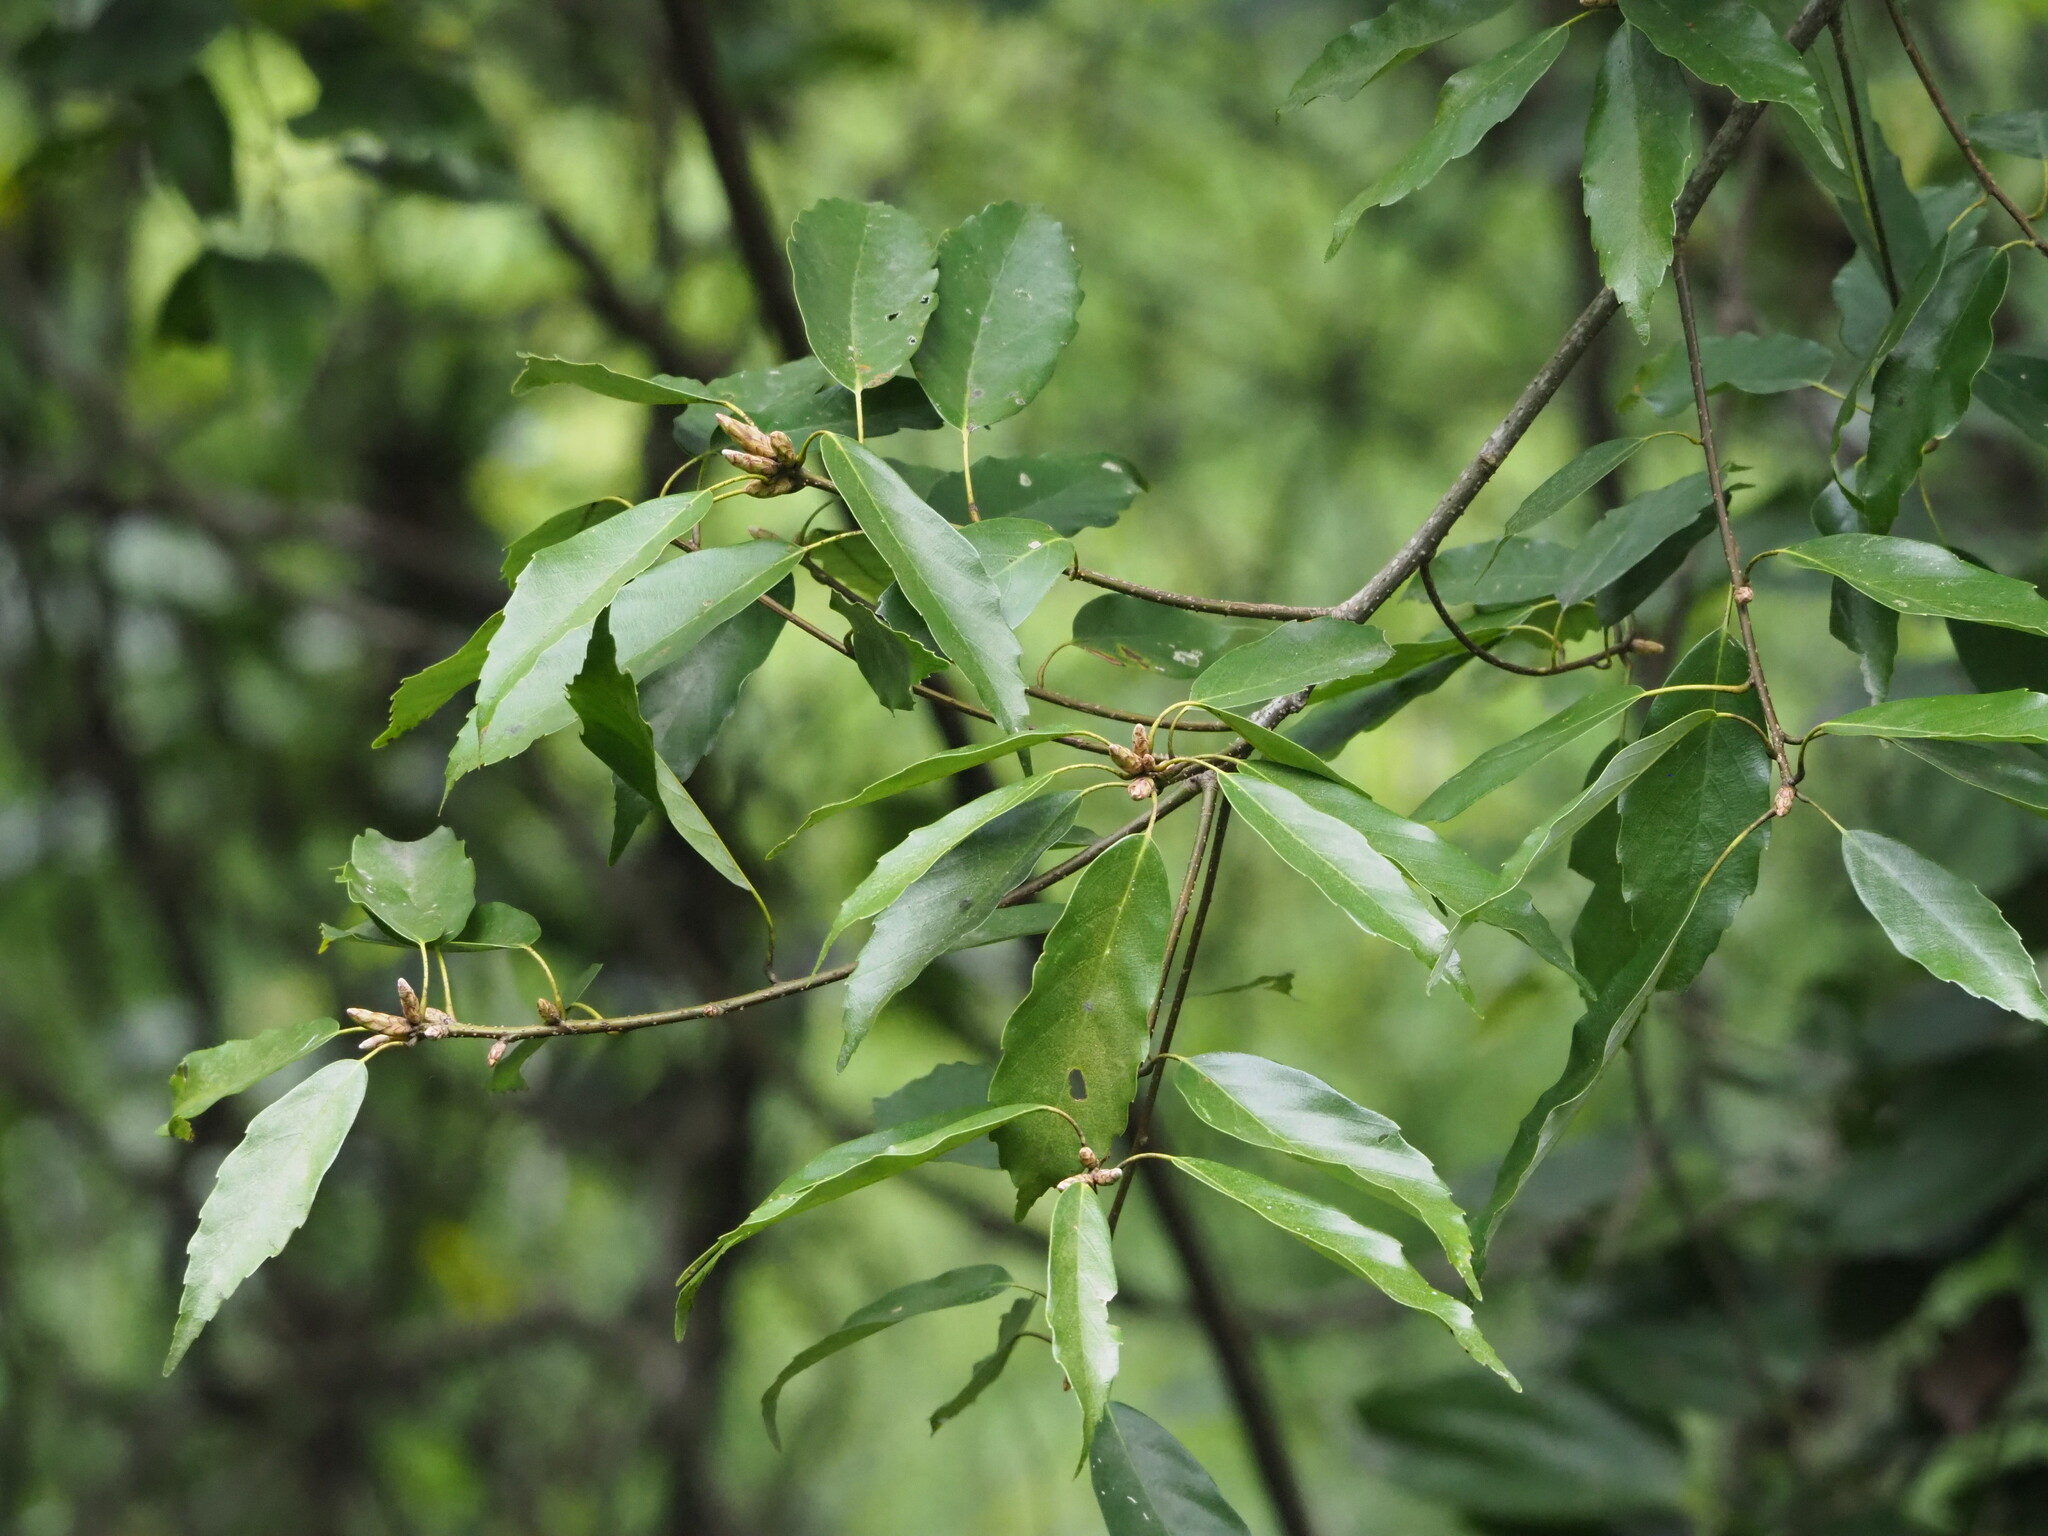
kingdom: Plantae
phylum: Tracheophyta
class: Magnoliopsida
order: Fagales
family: Fagaceae
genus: Quercus
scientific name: Quercus stenophylloides
